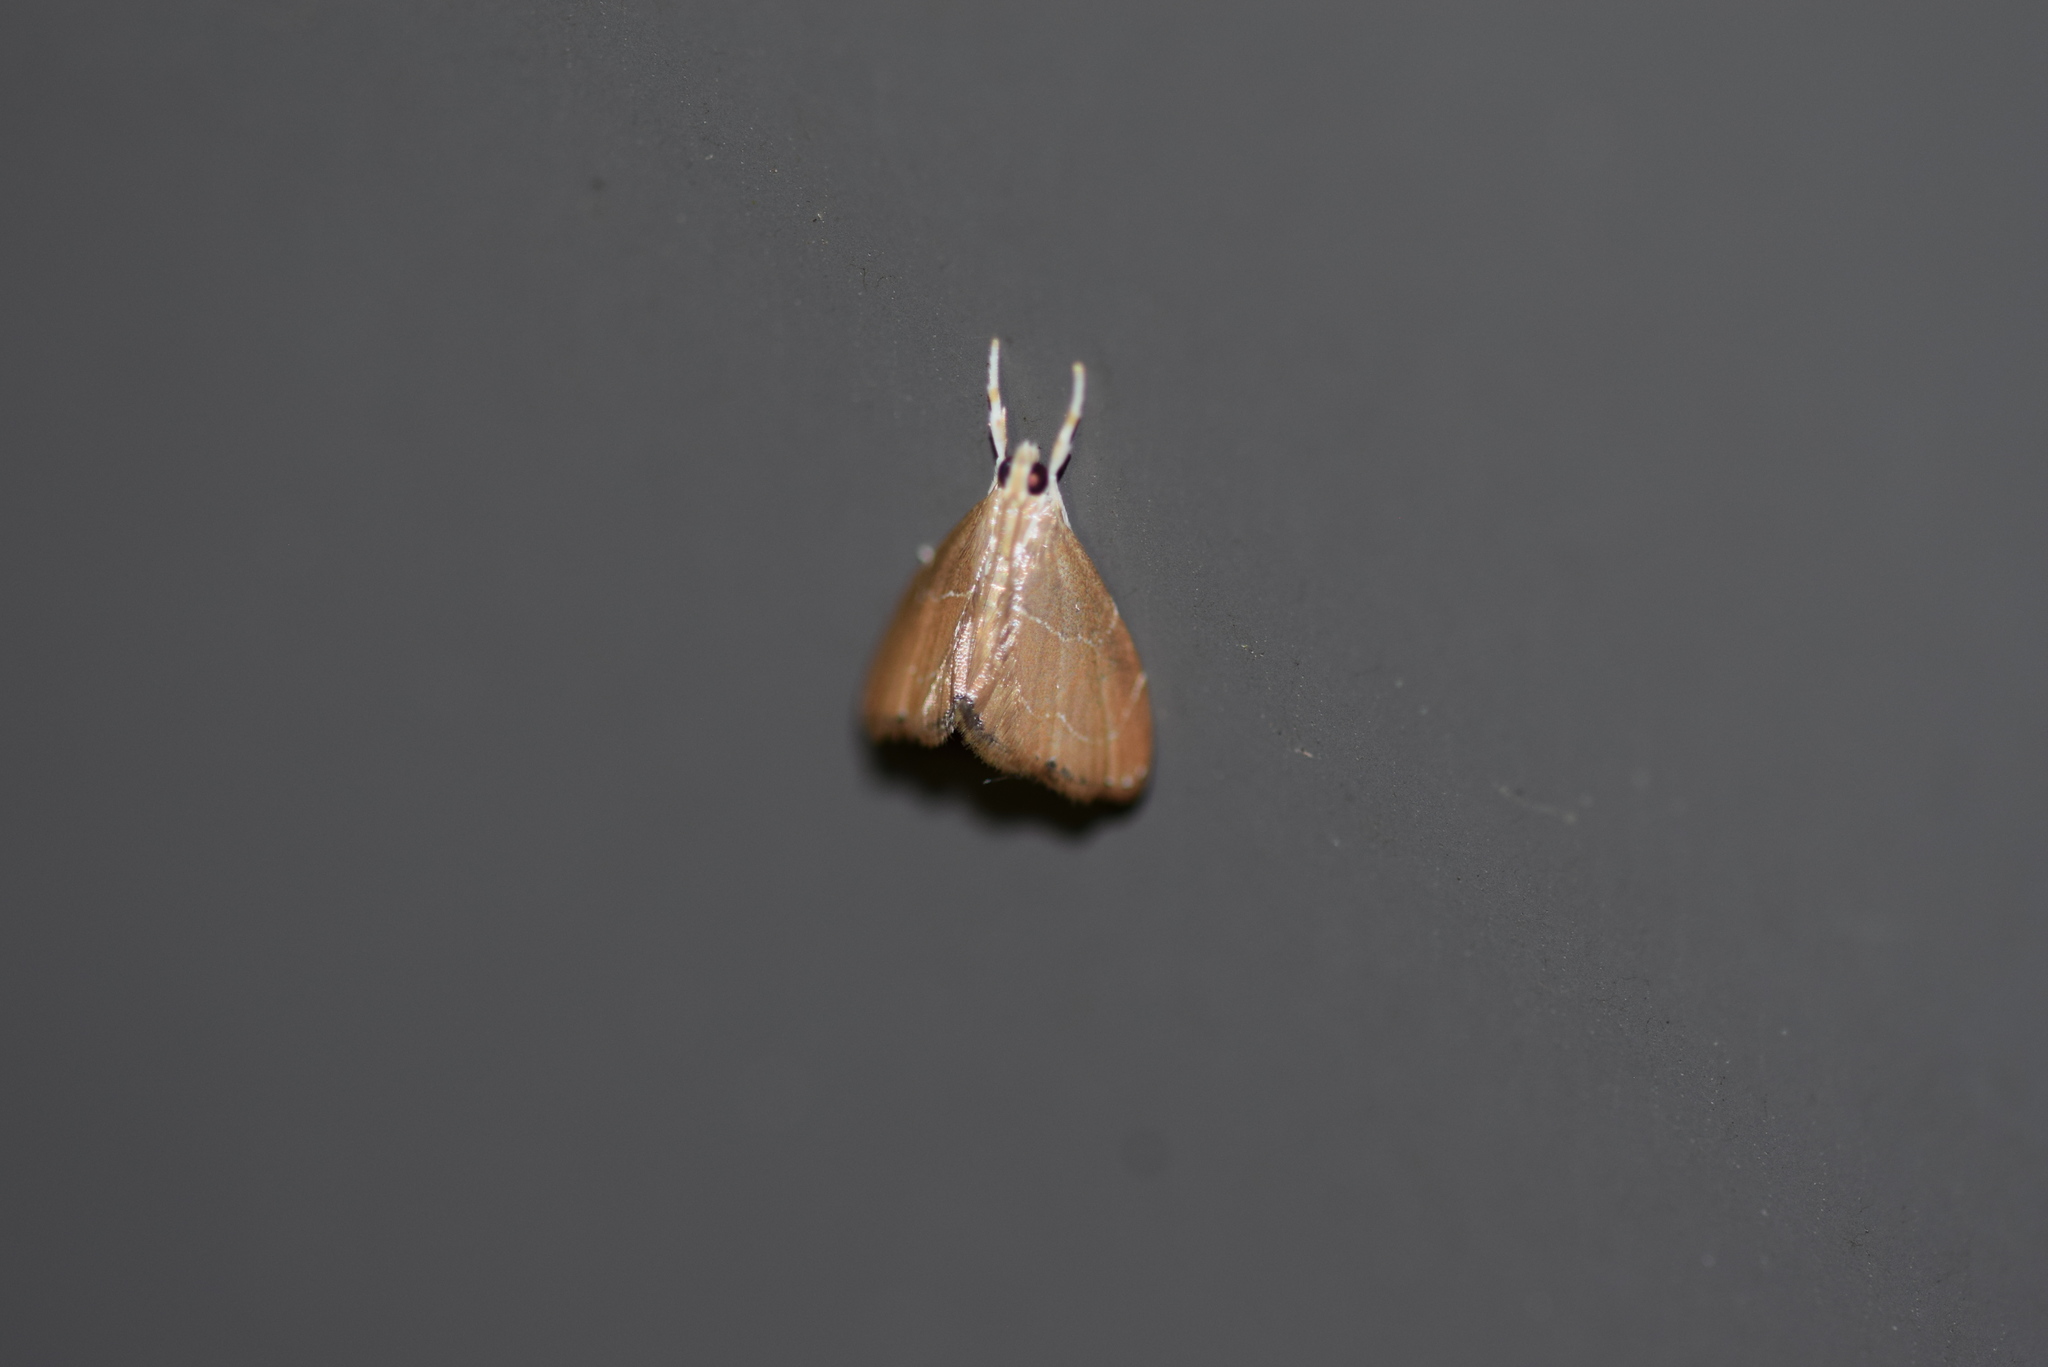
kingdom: Animalia
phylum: Arthropoda
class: Insecta
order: Lepidoptera
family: Crambidae
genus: Glaphyria
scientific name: Glaphyria peremptalis
